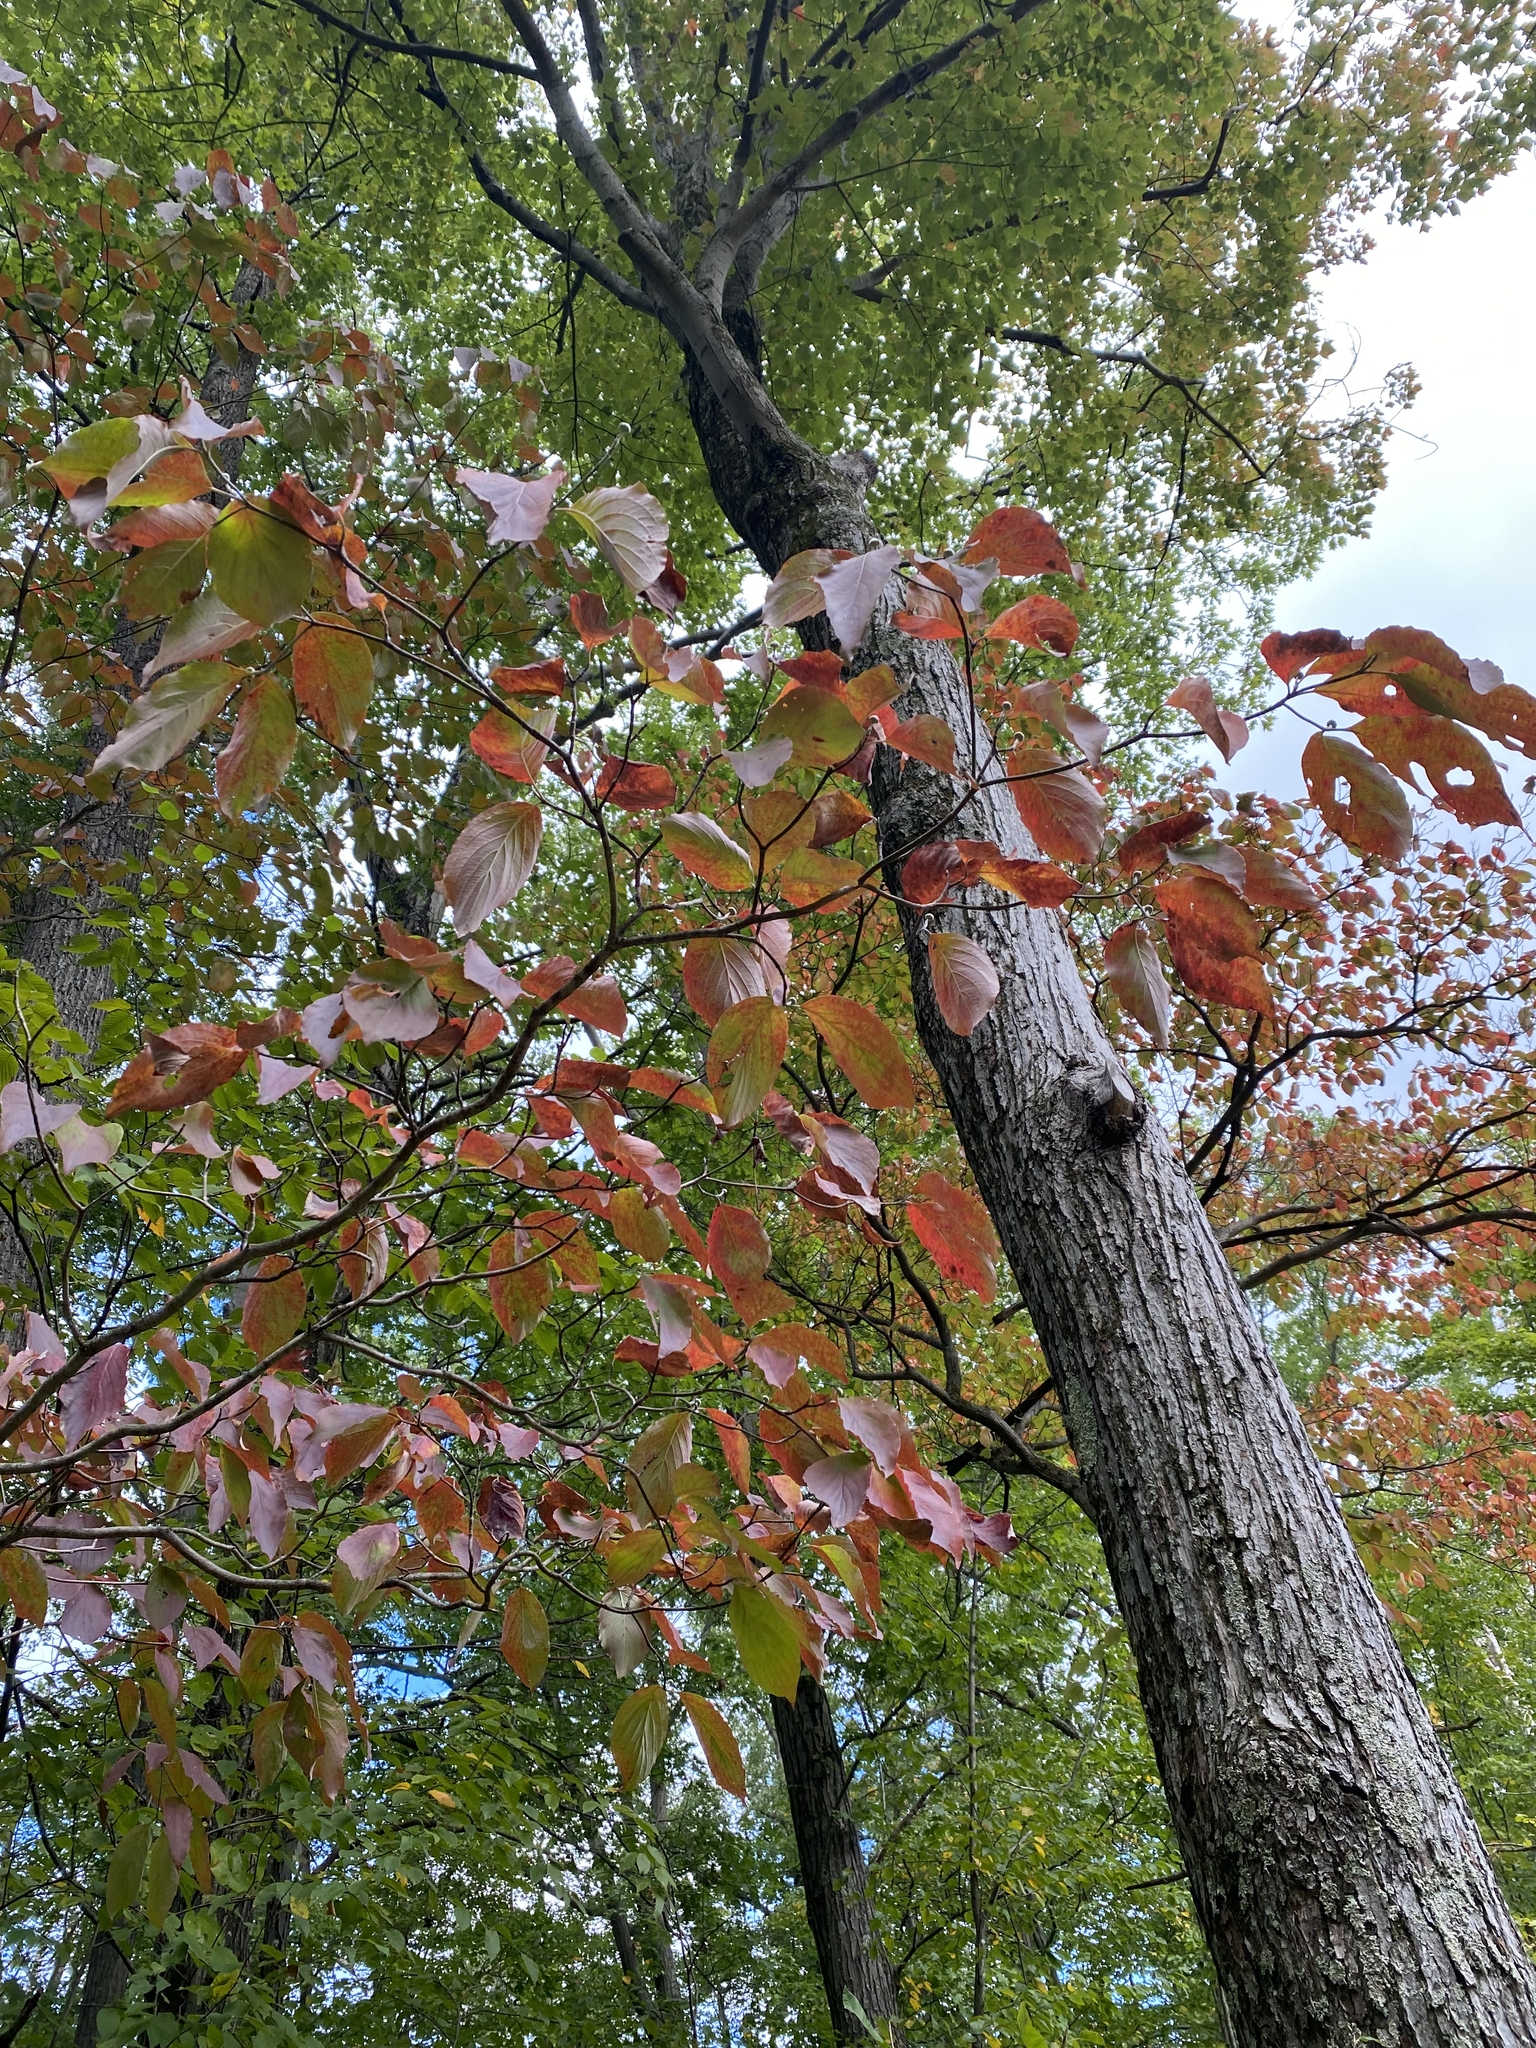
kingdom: Plantae
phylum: Tracheophyta
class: Magnoliopsida
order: Cornales
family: Cornaceae
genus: Cornus
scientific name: Cornus florida
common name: Flowering dogwood
